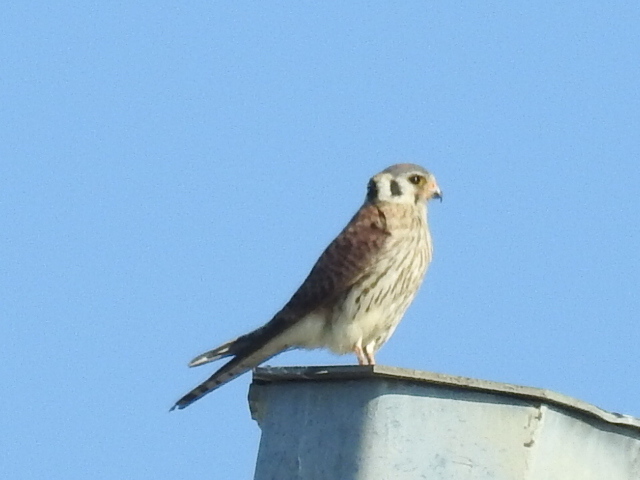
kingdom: Animalia
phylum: Chordata
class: Aves
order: Falconiformes
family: Falconidae
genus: Falco
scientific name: Falco sparverius
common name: American kestrel
